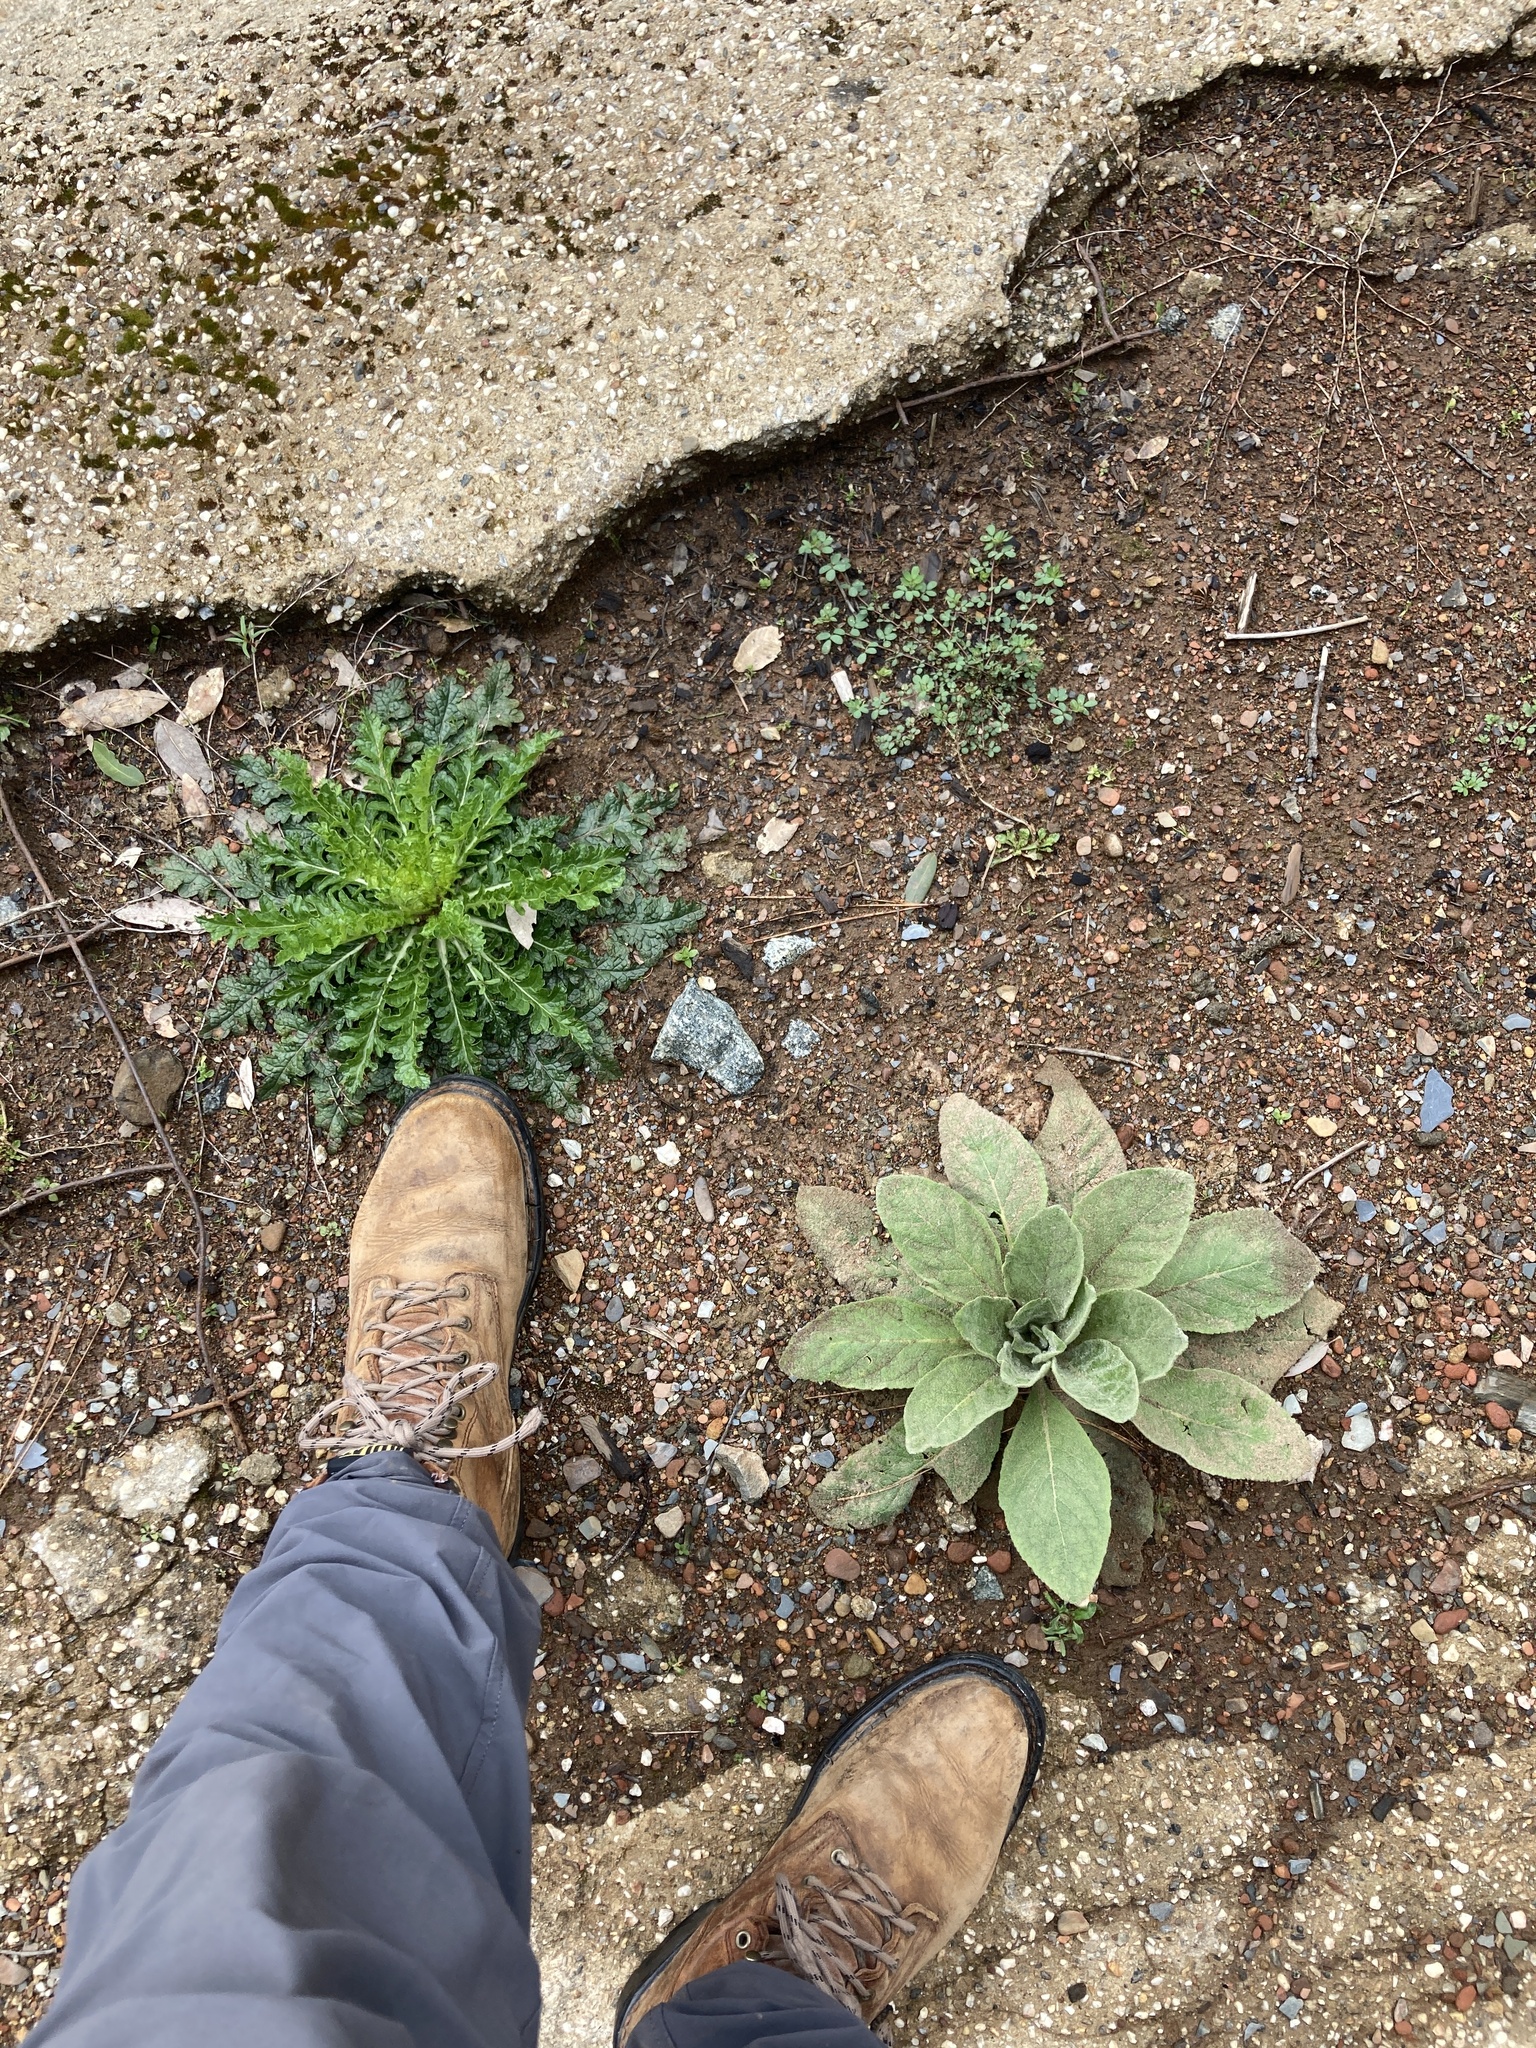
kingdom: Plantae
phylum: Tracheophyta
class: Magnoliopsida
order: Lamiales
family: Scrophulariaceae
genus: Verbascum
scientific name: Verbascum blattaria
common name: Moth mullein
